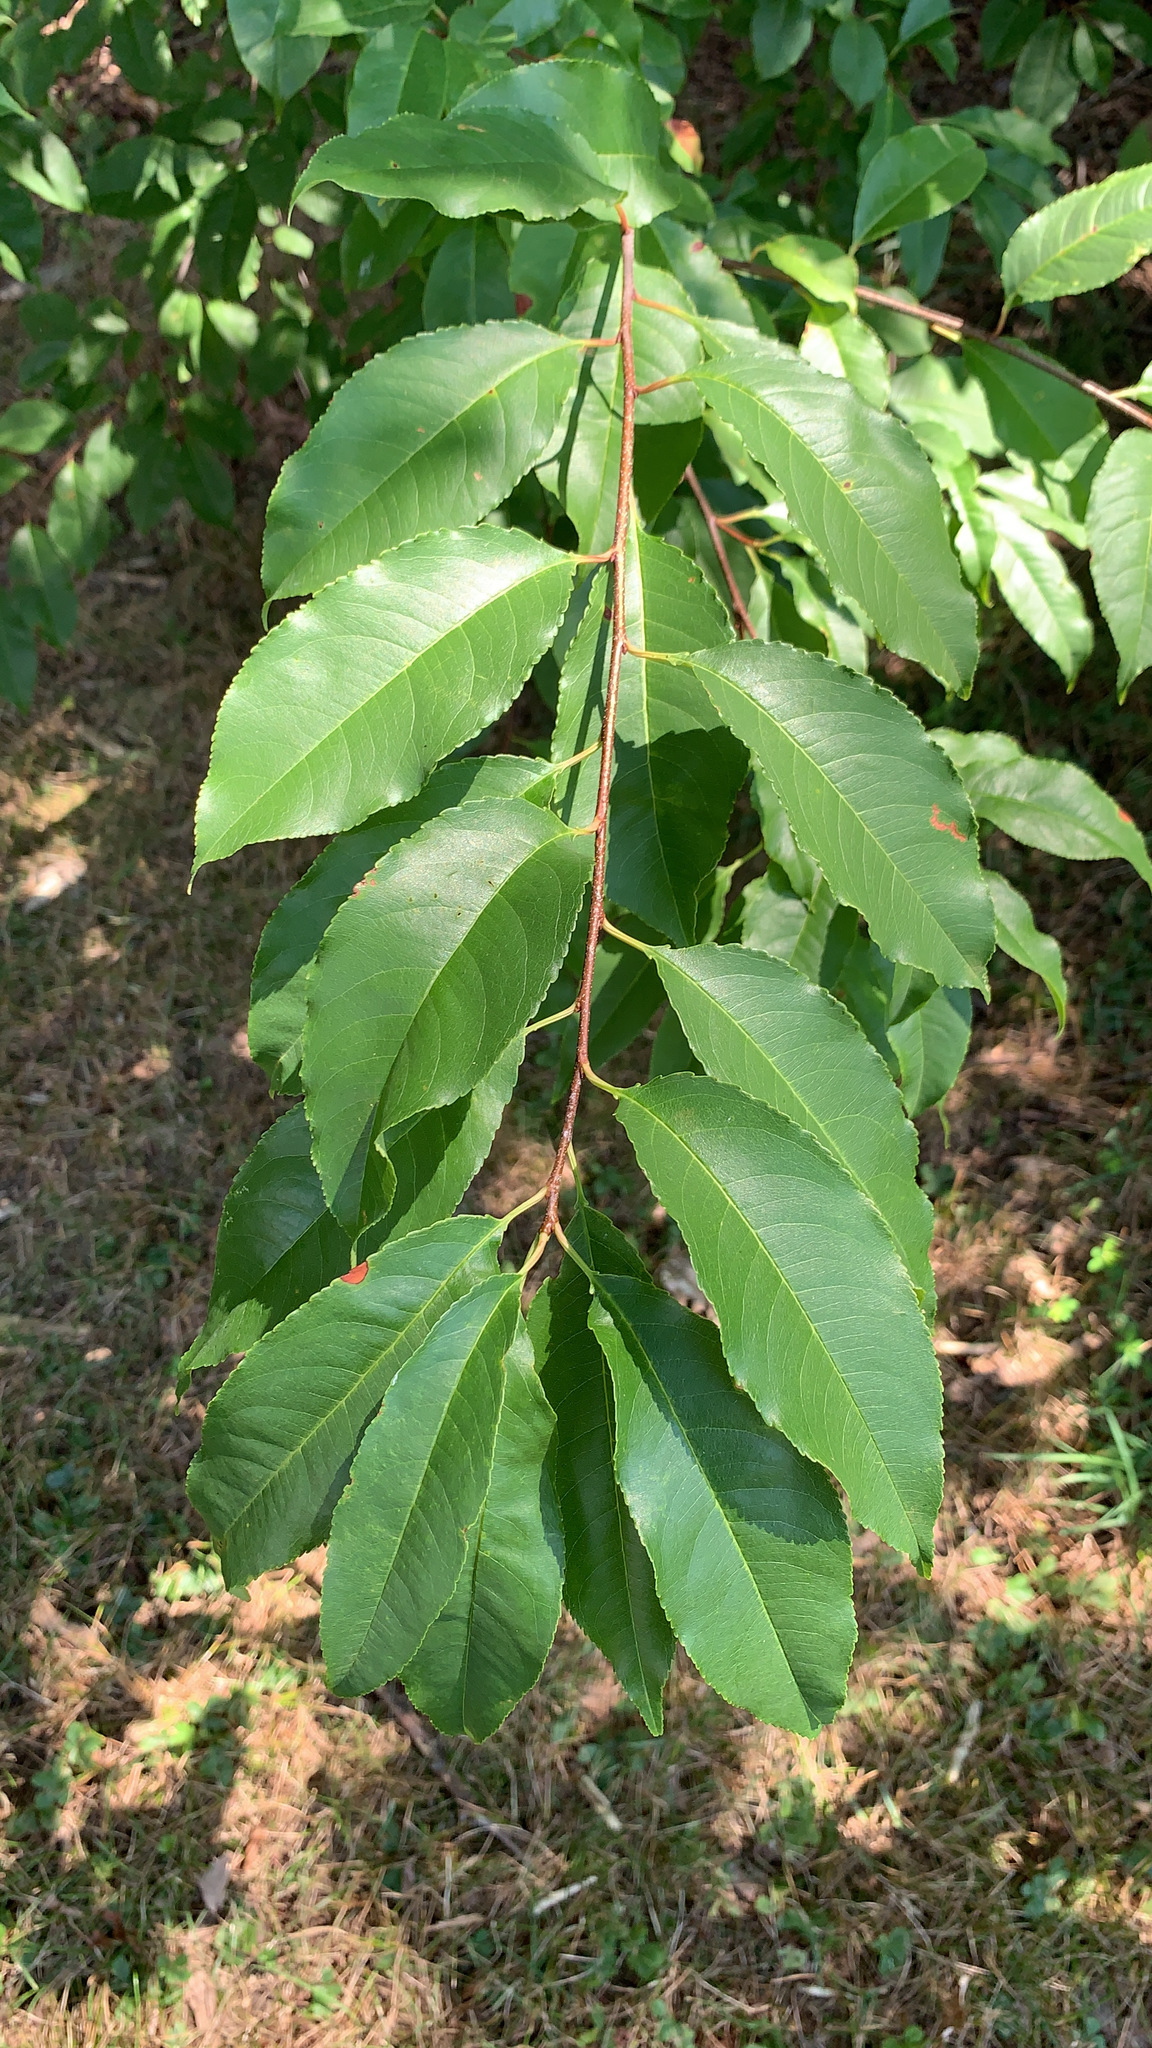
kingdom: Plantae
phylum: Tracheophyta
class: Magnoliopsida
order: Rosales
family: Rosaceae
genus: Prunus
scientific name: Prunus serotina
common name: Black cherry
